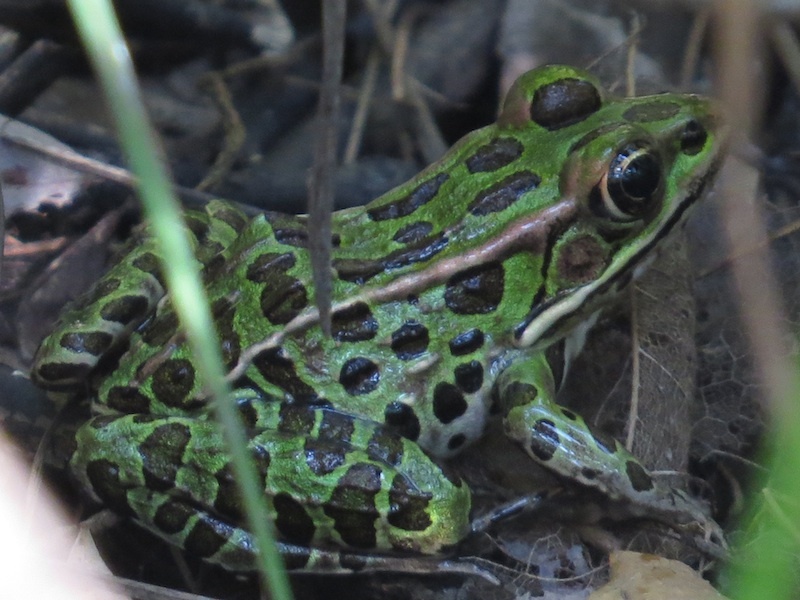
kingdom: Animalia
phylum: Chordata
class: Amphibia
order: Anura
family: Ranidae
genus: Lithobates
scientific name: Lithobates pipiens
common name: Northern leopard frog
